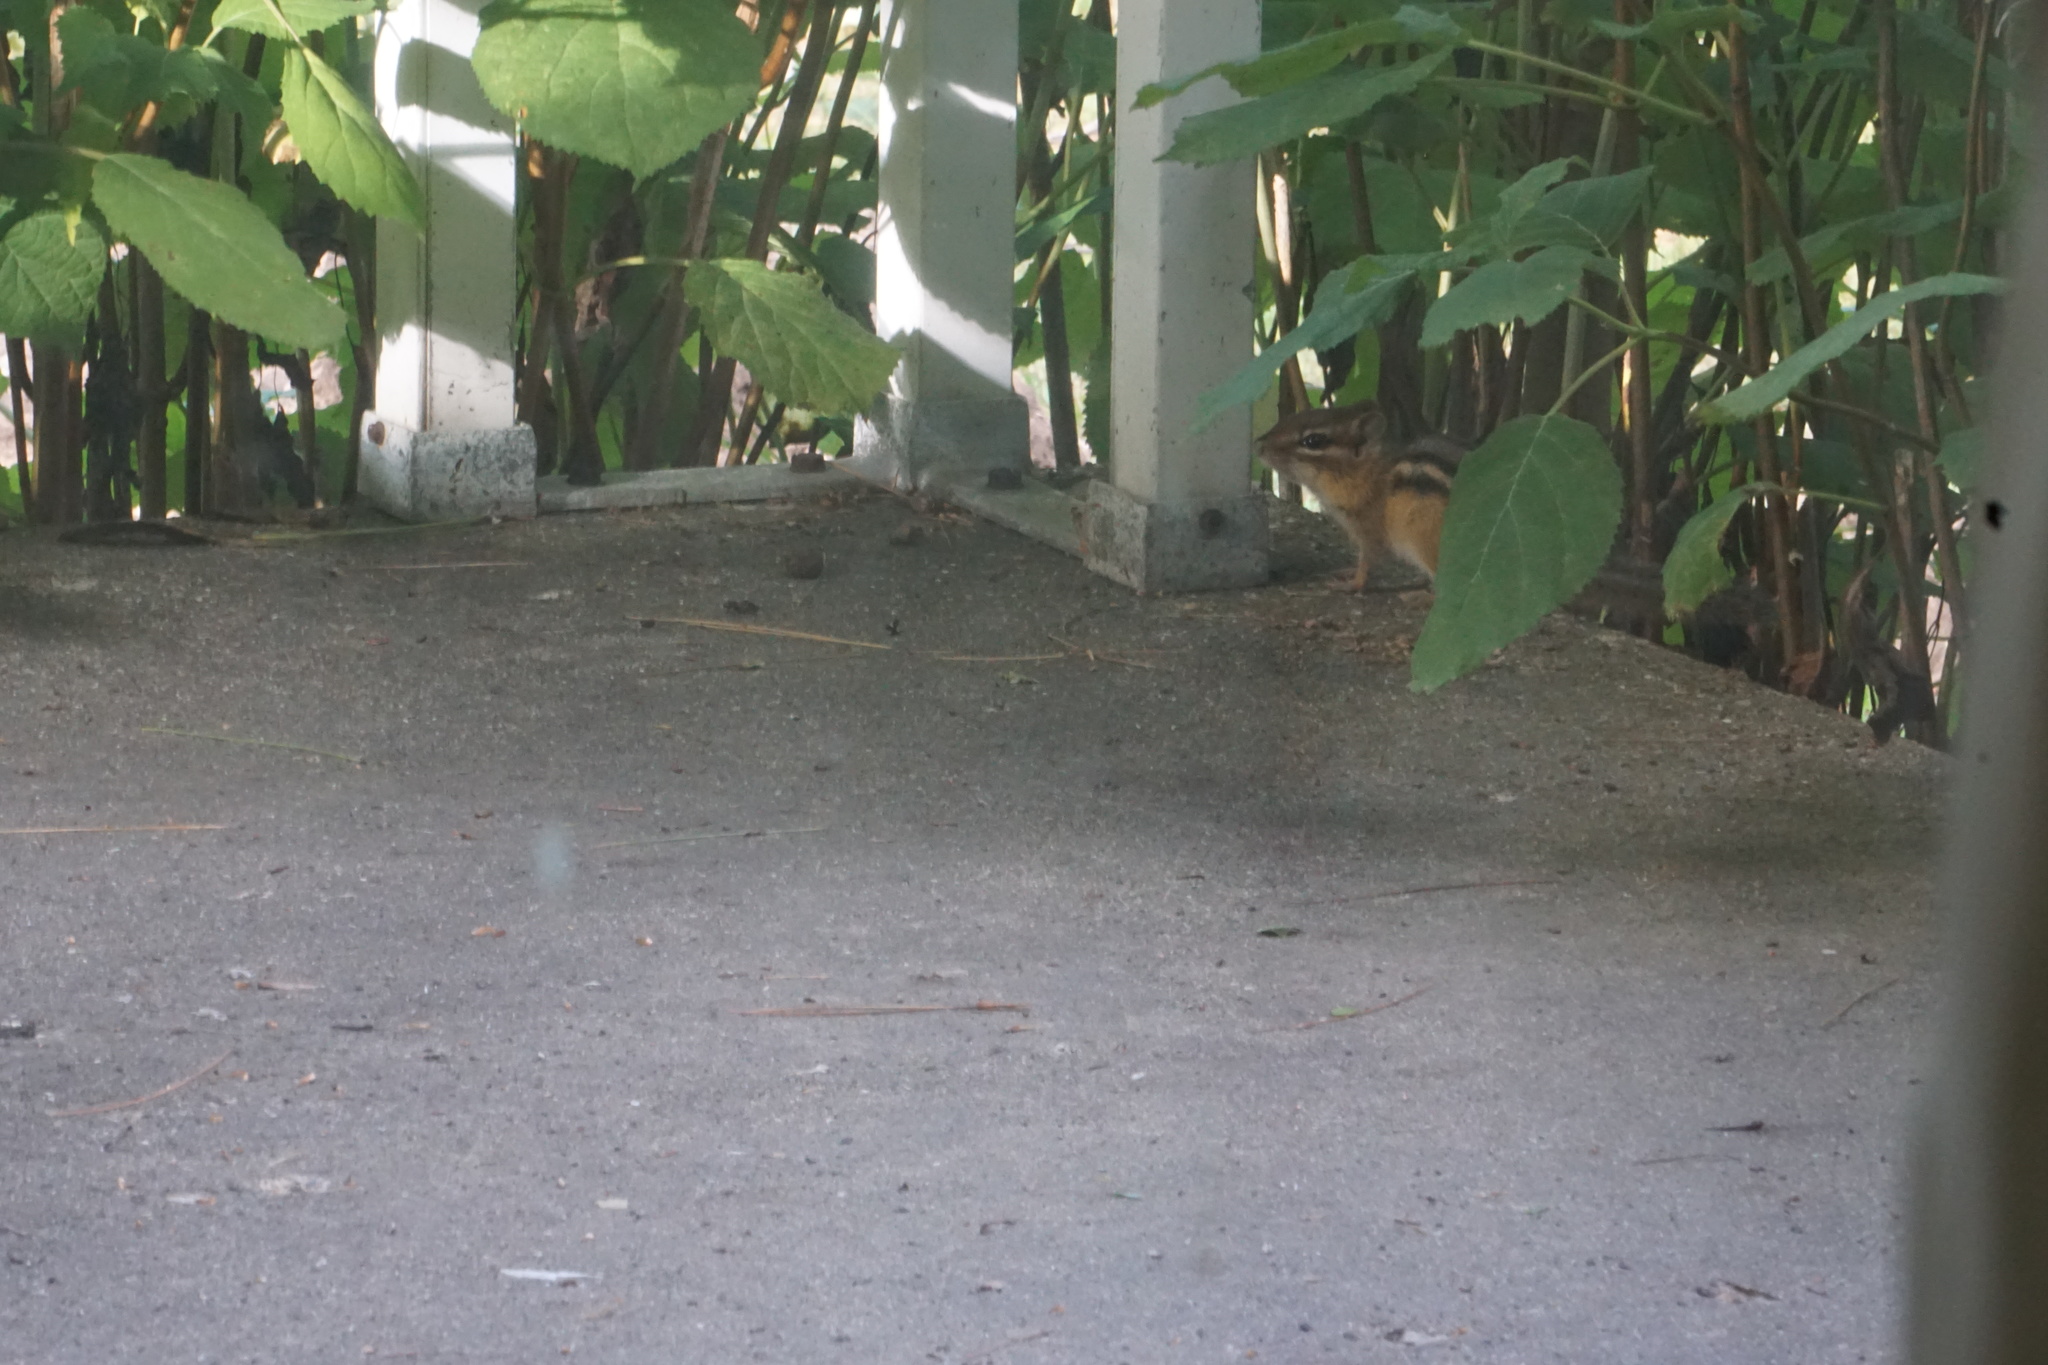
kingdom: Animalia
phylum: Chordata
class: Mammalia
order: Rodentia
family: Sciuridae
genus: Tamias
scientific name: Tamias striatus
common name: Eastern chipmunk
